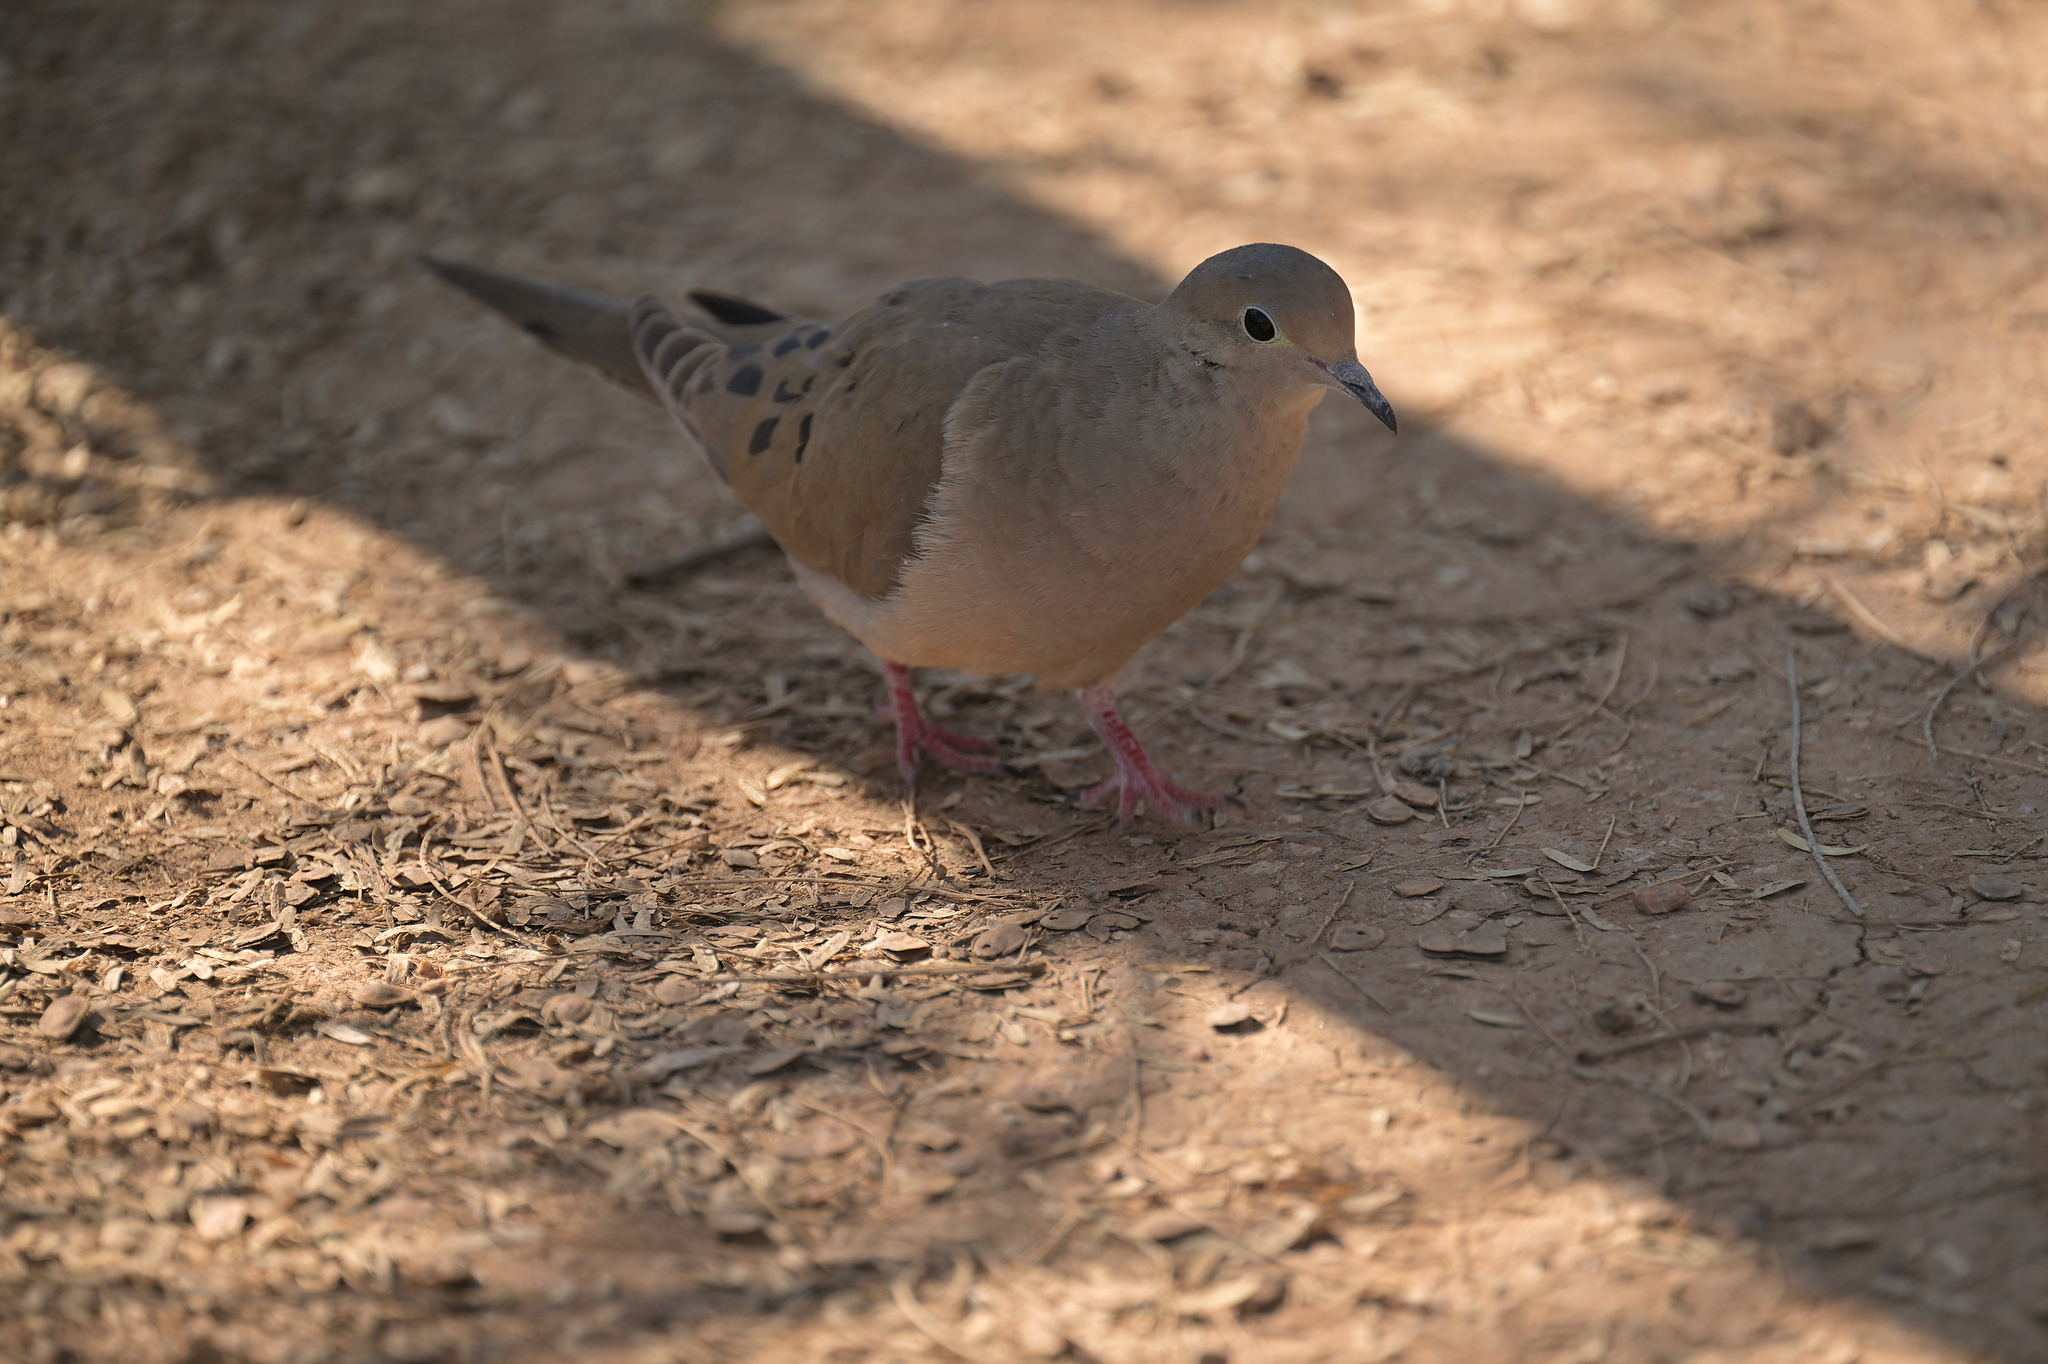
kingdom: Animalia
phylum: Chordata
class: Aves
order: Columbiformes
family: Columbidae
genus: Zenaida
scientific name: Zenaida macroura
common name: Mourning dove
